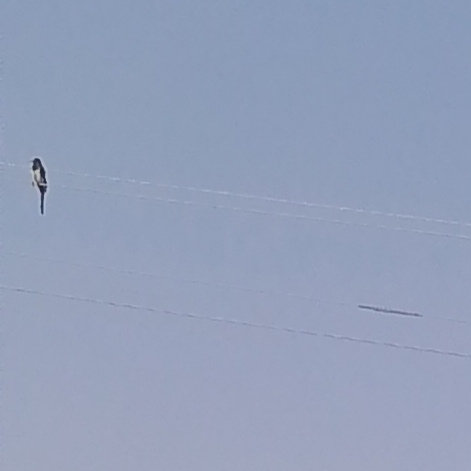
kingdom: Animalia
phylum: Chordata
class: Aves
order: Passeriformes
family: Corvidae
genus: Pica
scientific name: Pica pica
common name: Eurasian magpie
